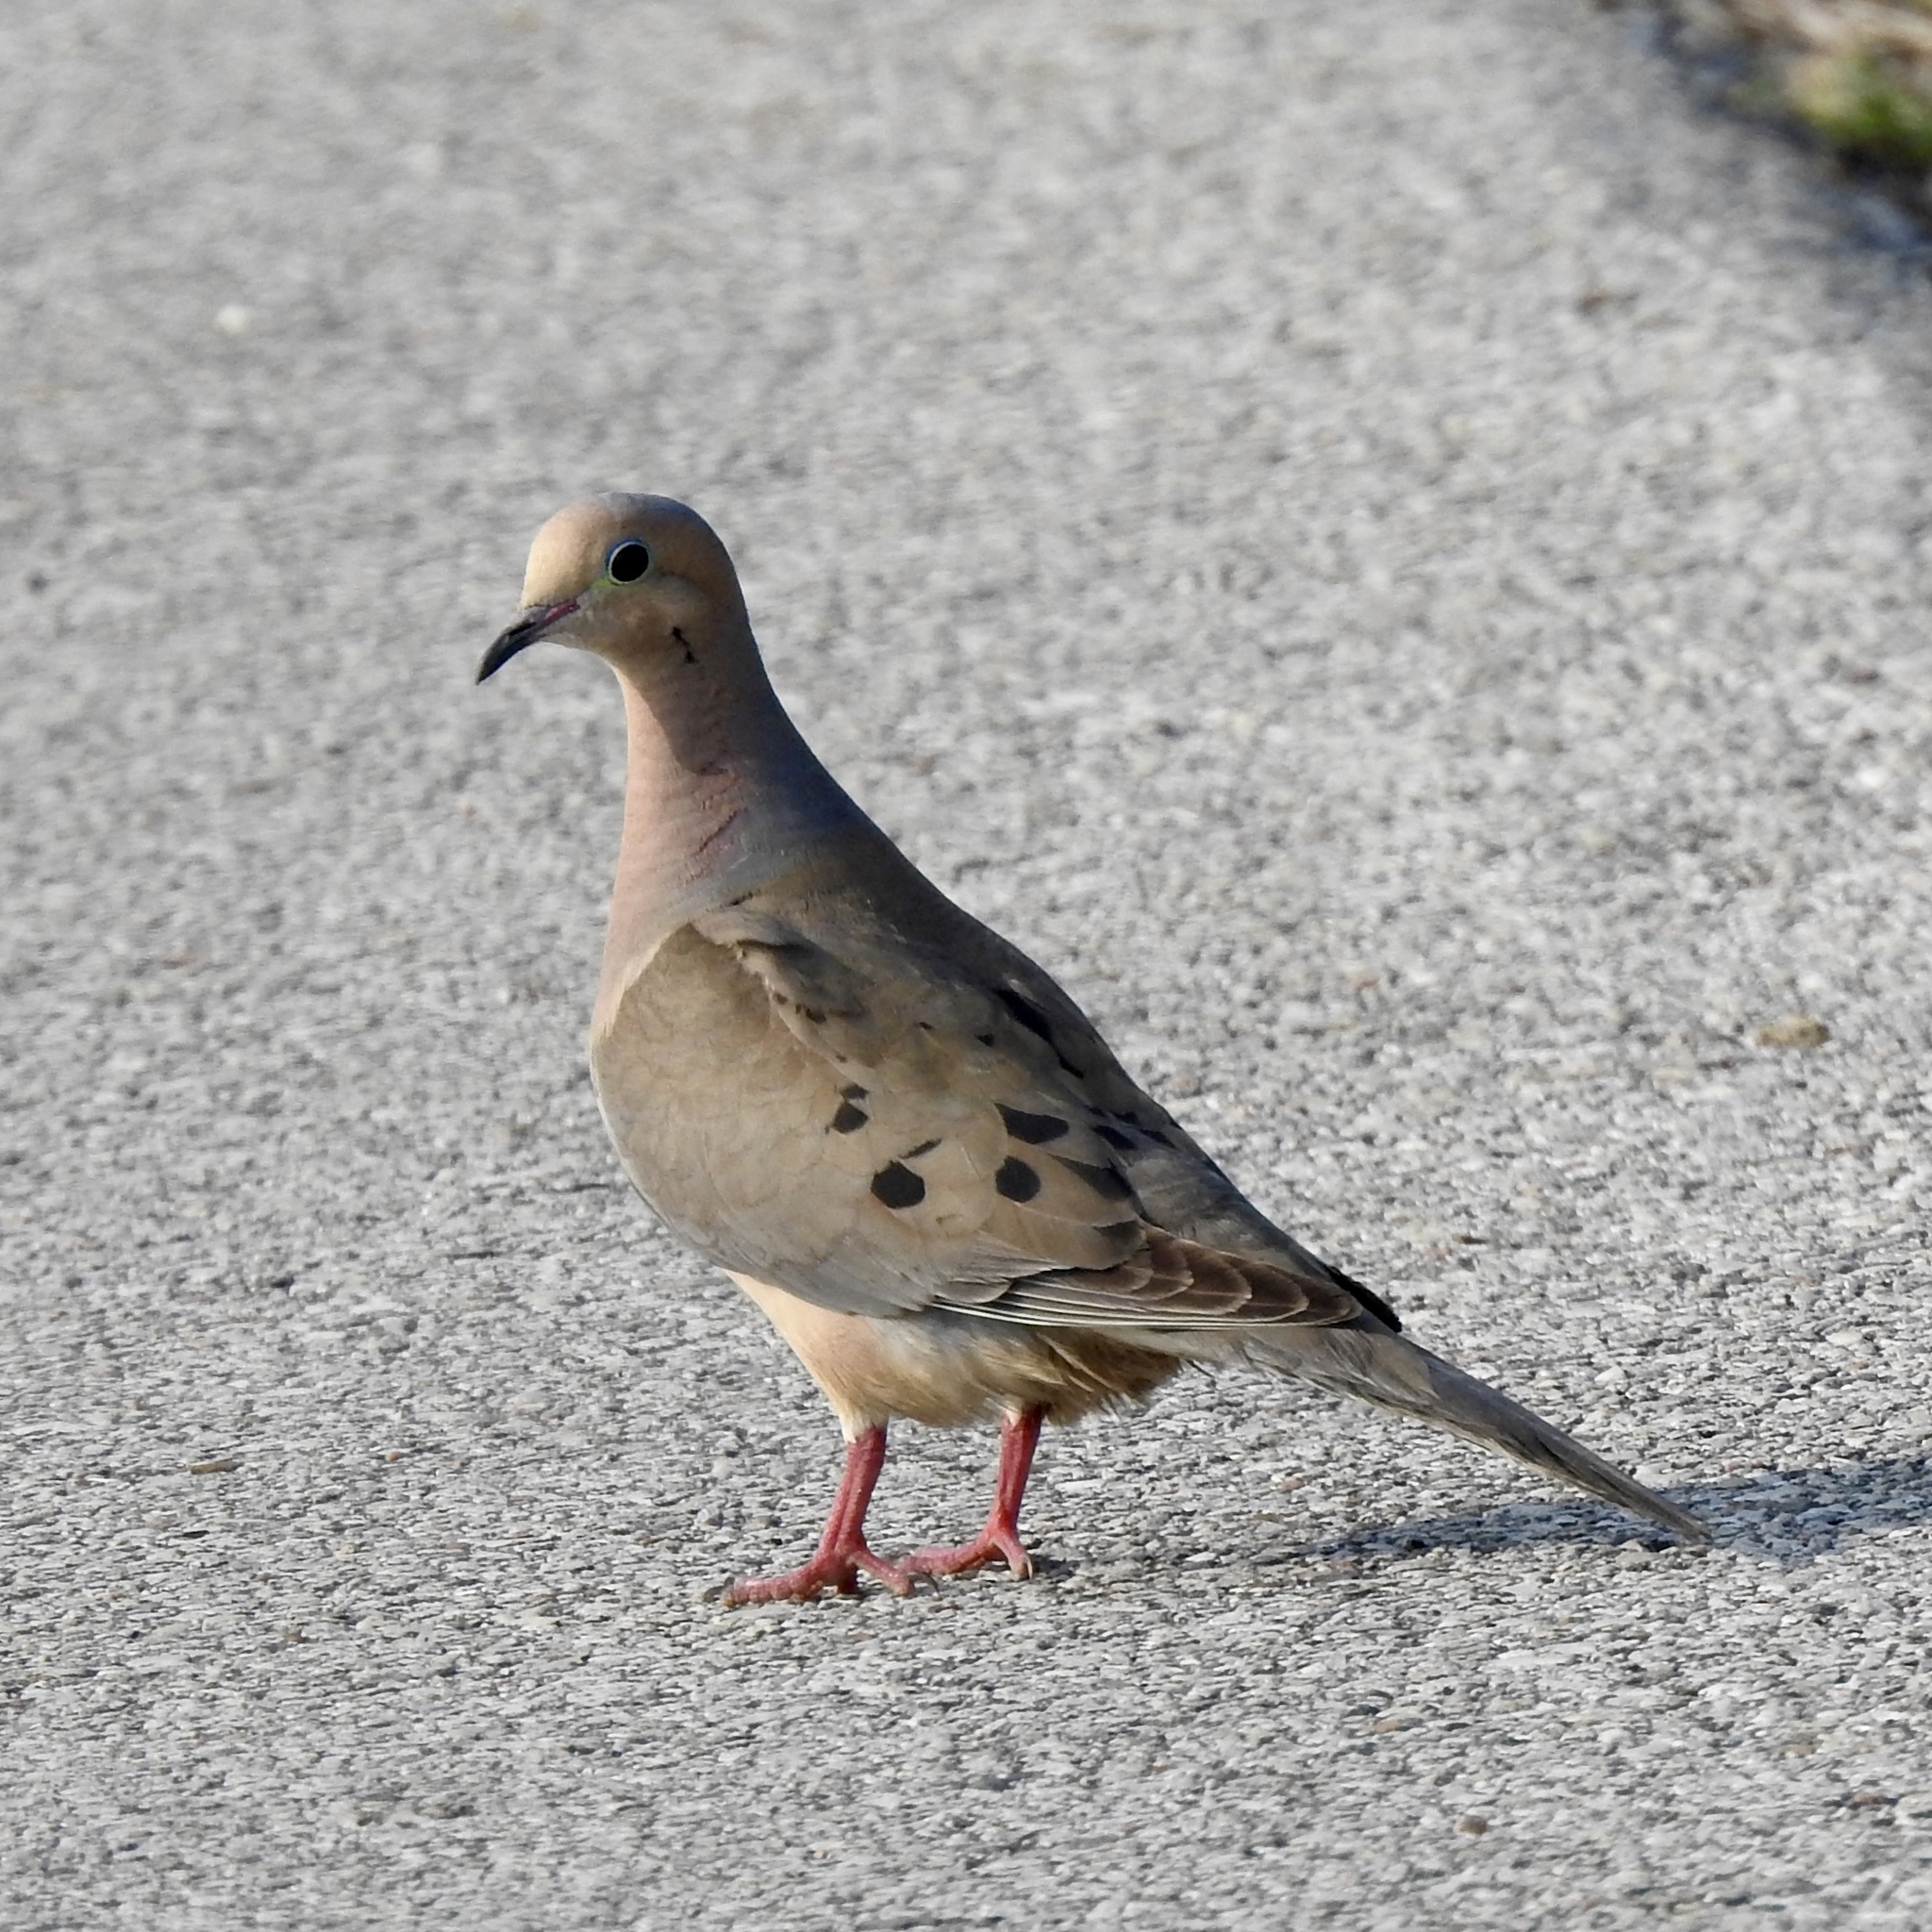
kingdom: Animalia
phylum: Chordata
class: Aves
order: Columbiformes
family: Columbidae
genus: Zenaida
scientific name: Zenaida macroura
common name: Mourning dove
